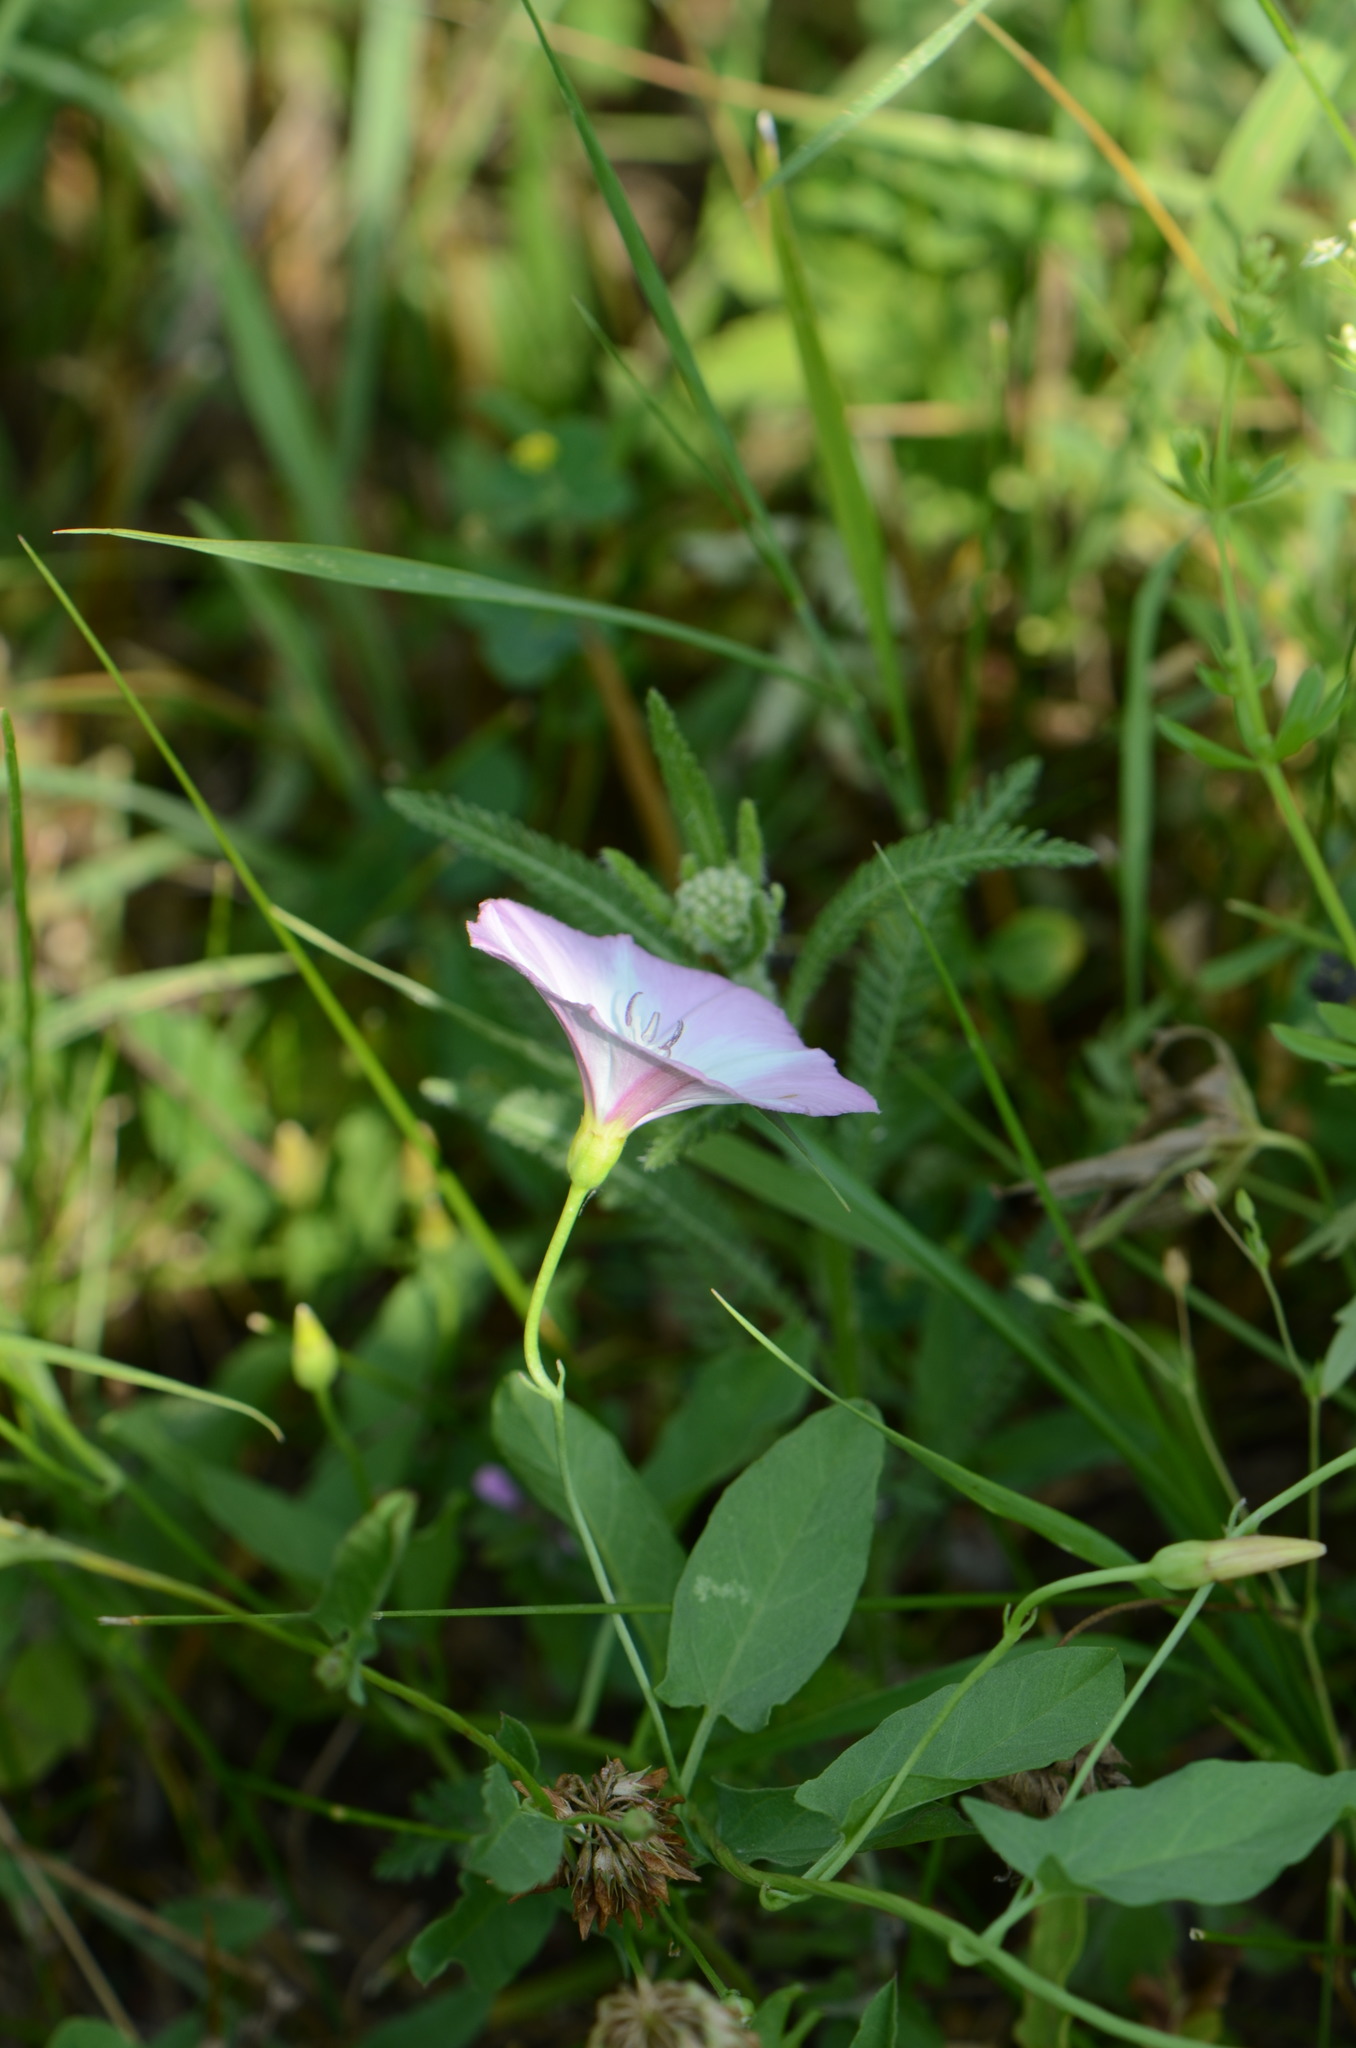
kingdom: Plantae
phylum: Tracheophyta
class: Magnoliopsida
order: Solanales
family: Convolvulaceae
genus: Convolvulus
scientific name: Convolvulus arvensis
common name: Field bindweed
